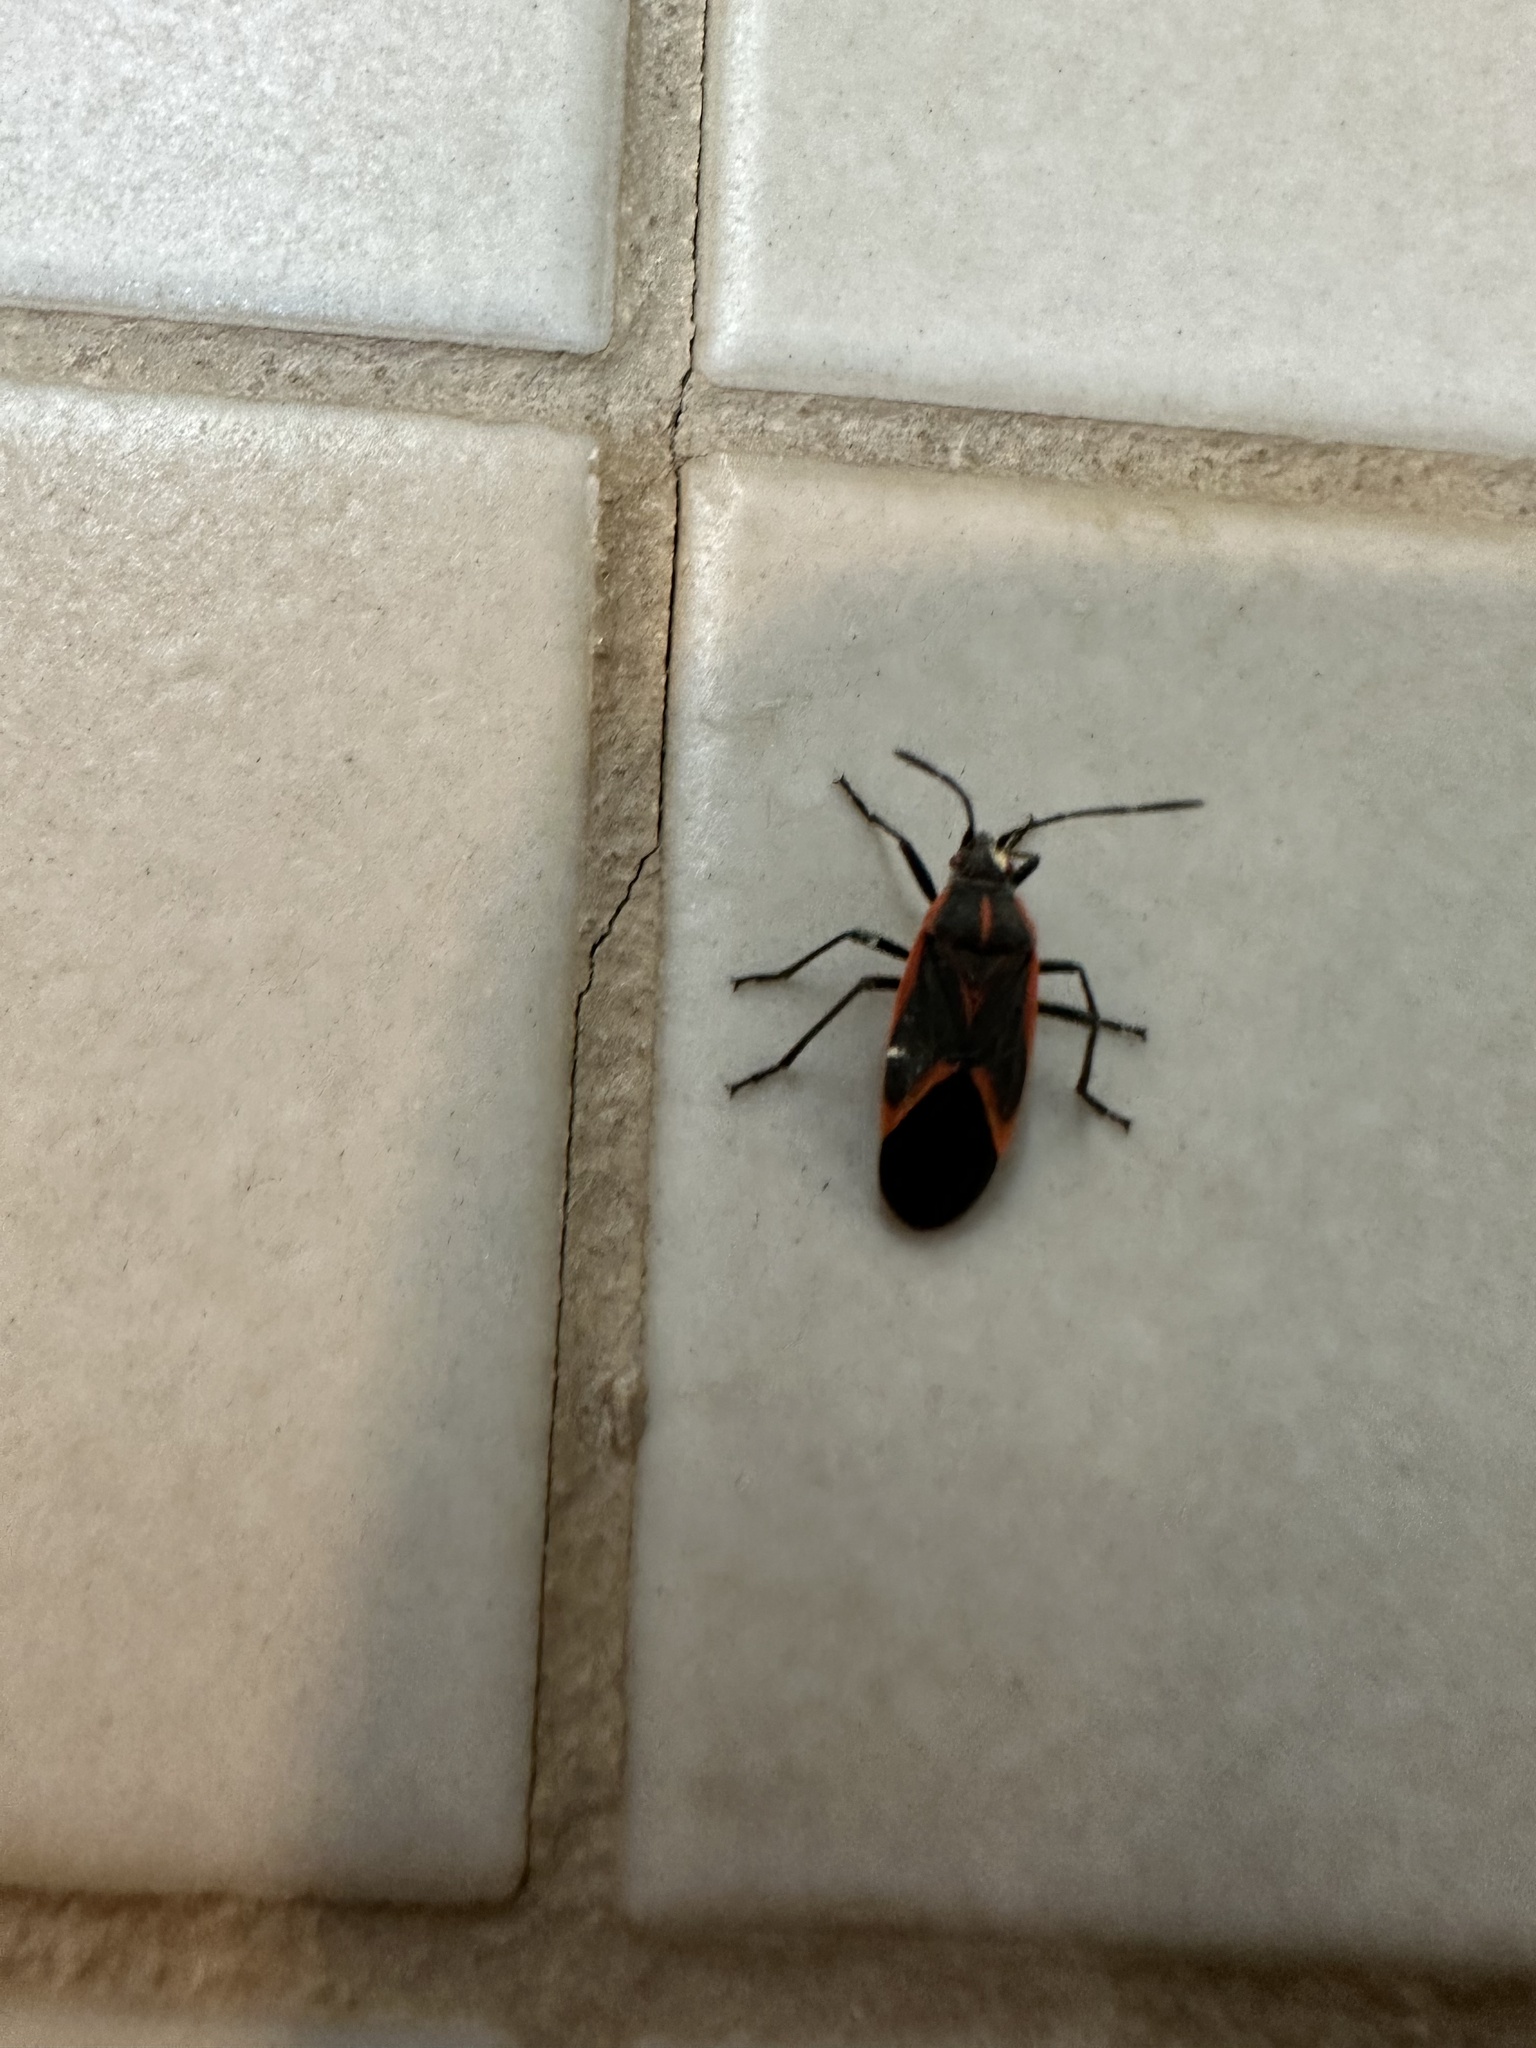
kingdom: Animalia
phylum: Arthropoda
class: Insecta
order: Hemiptera
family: Rhopalidae
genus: Boisea
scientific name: Boisea trivittata
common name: Boxelder bug
